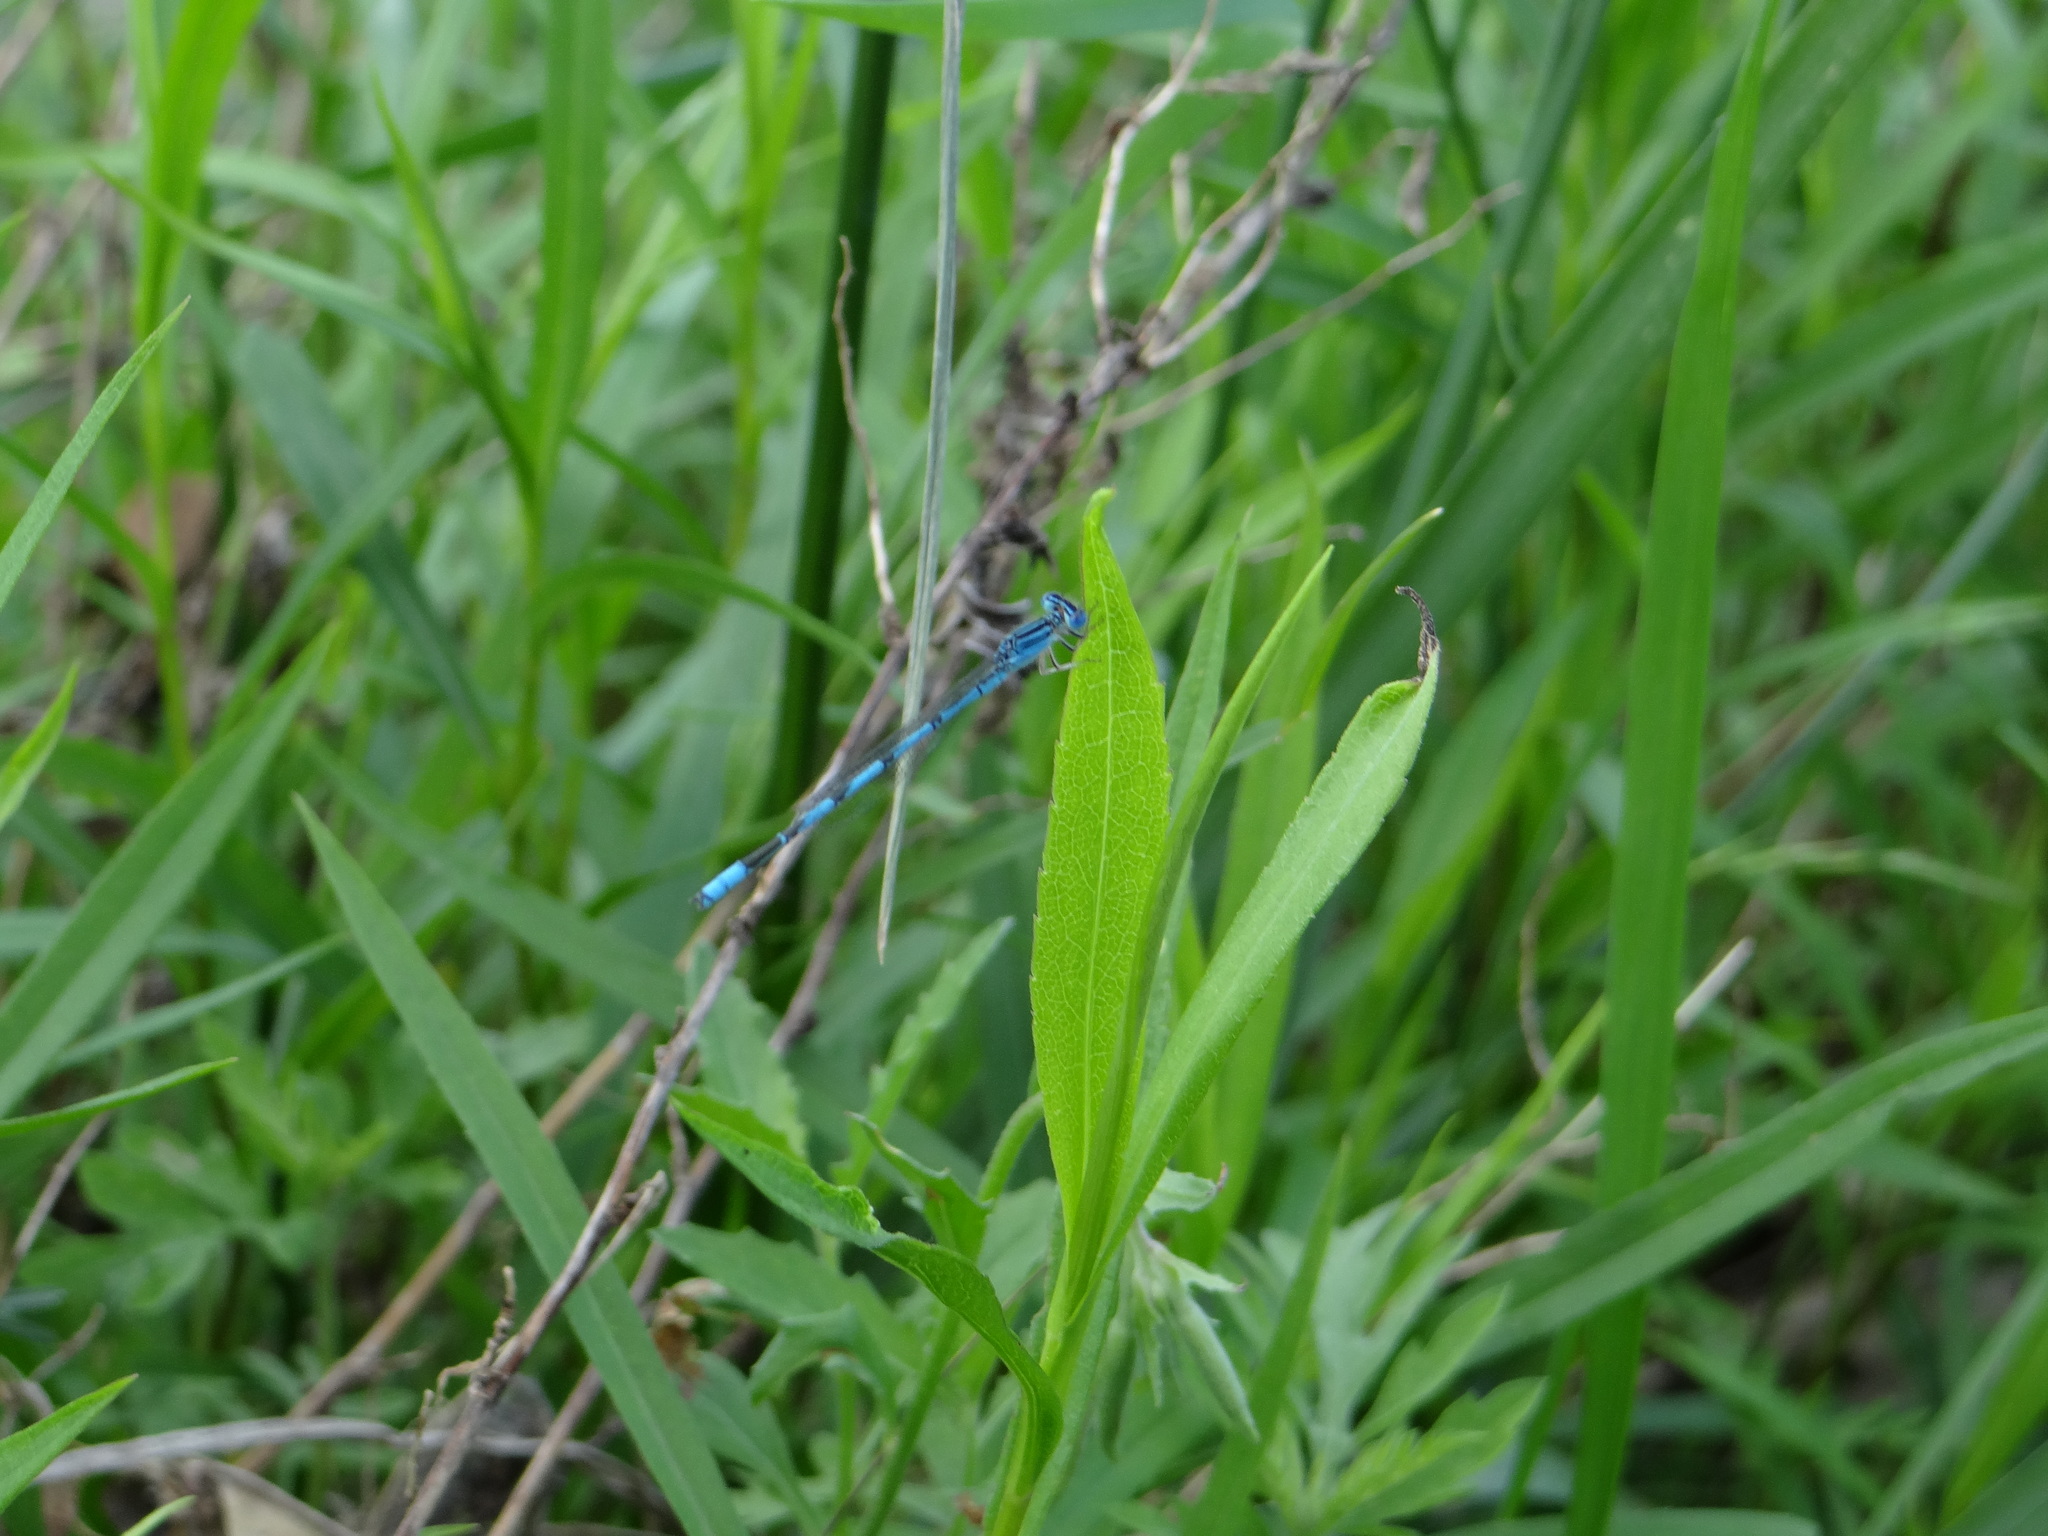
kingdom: Animalia
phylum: Arthropoda
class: Insecta
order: Odonata
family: Coenagrionidae
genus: Enallagma
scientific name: Enallagma basidens
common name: Double-striped bluet
